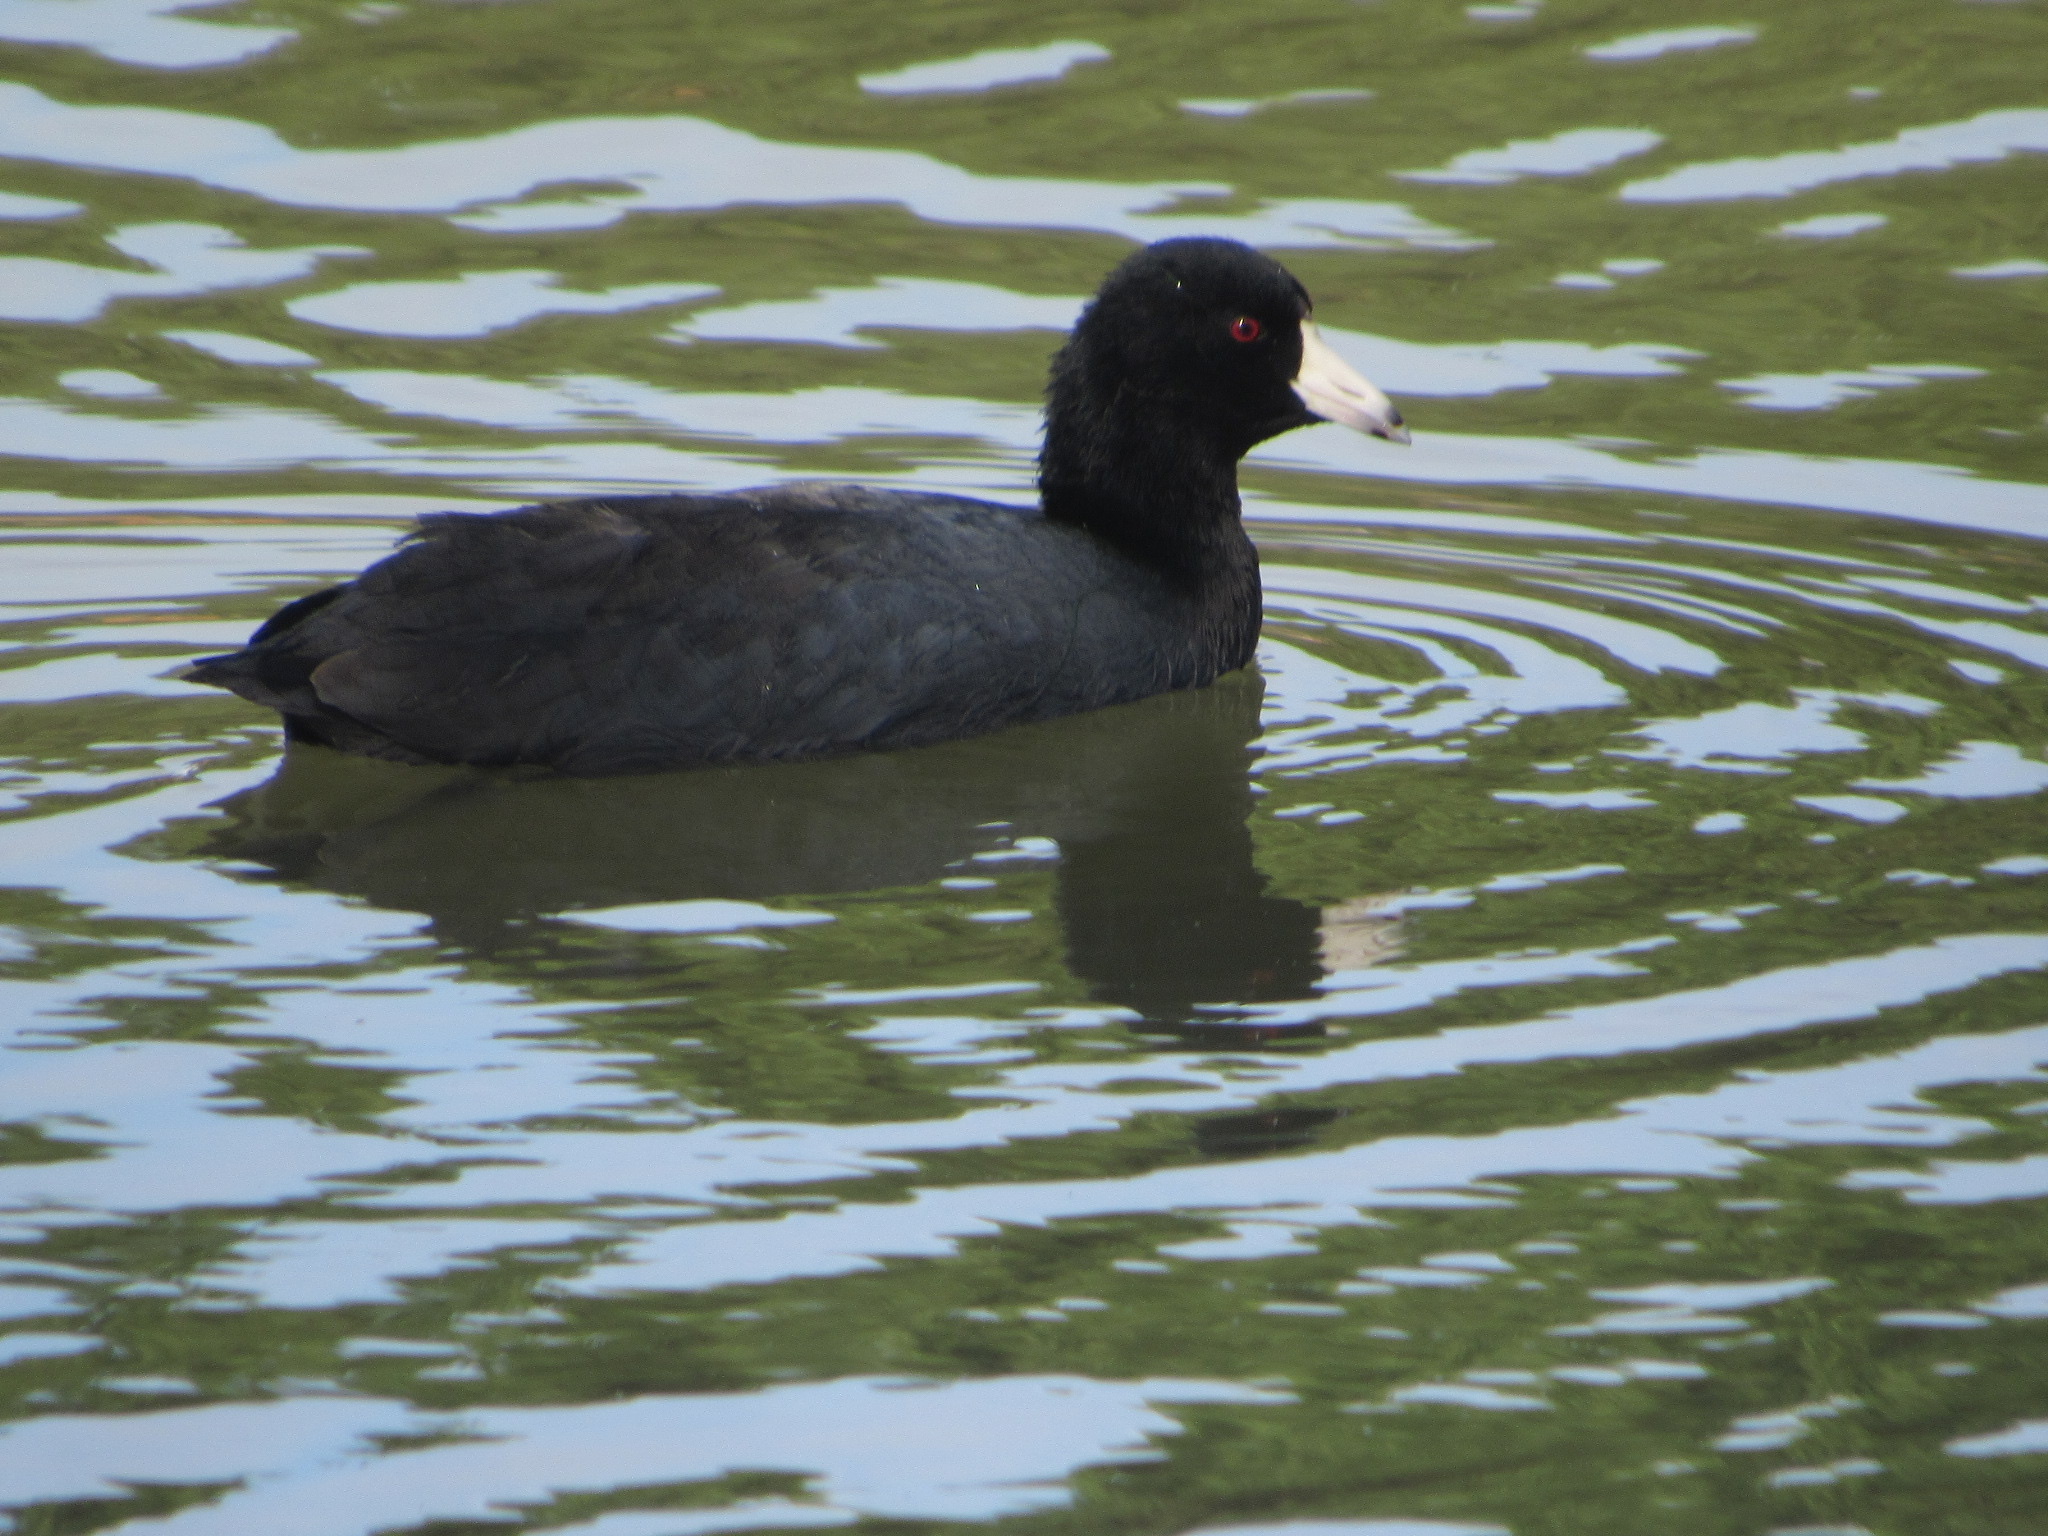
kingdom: Animalia
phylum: Chordata
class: Aves
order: Gruiformes
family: Rallidae
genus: Fulica
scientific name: Fulica americana
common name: American coot
